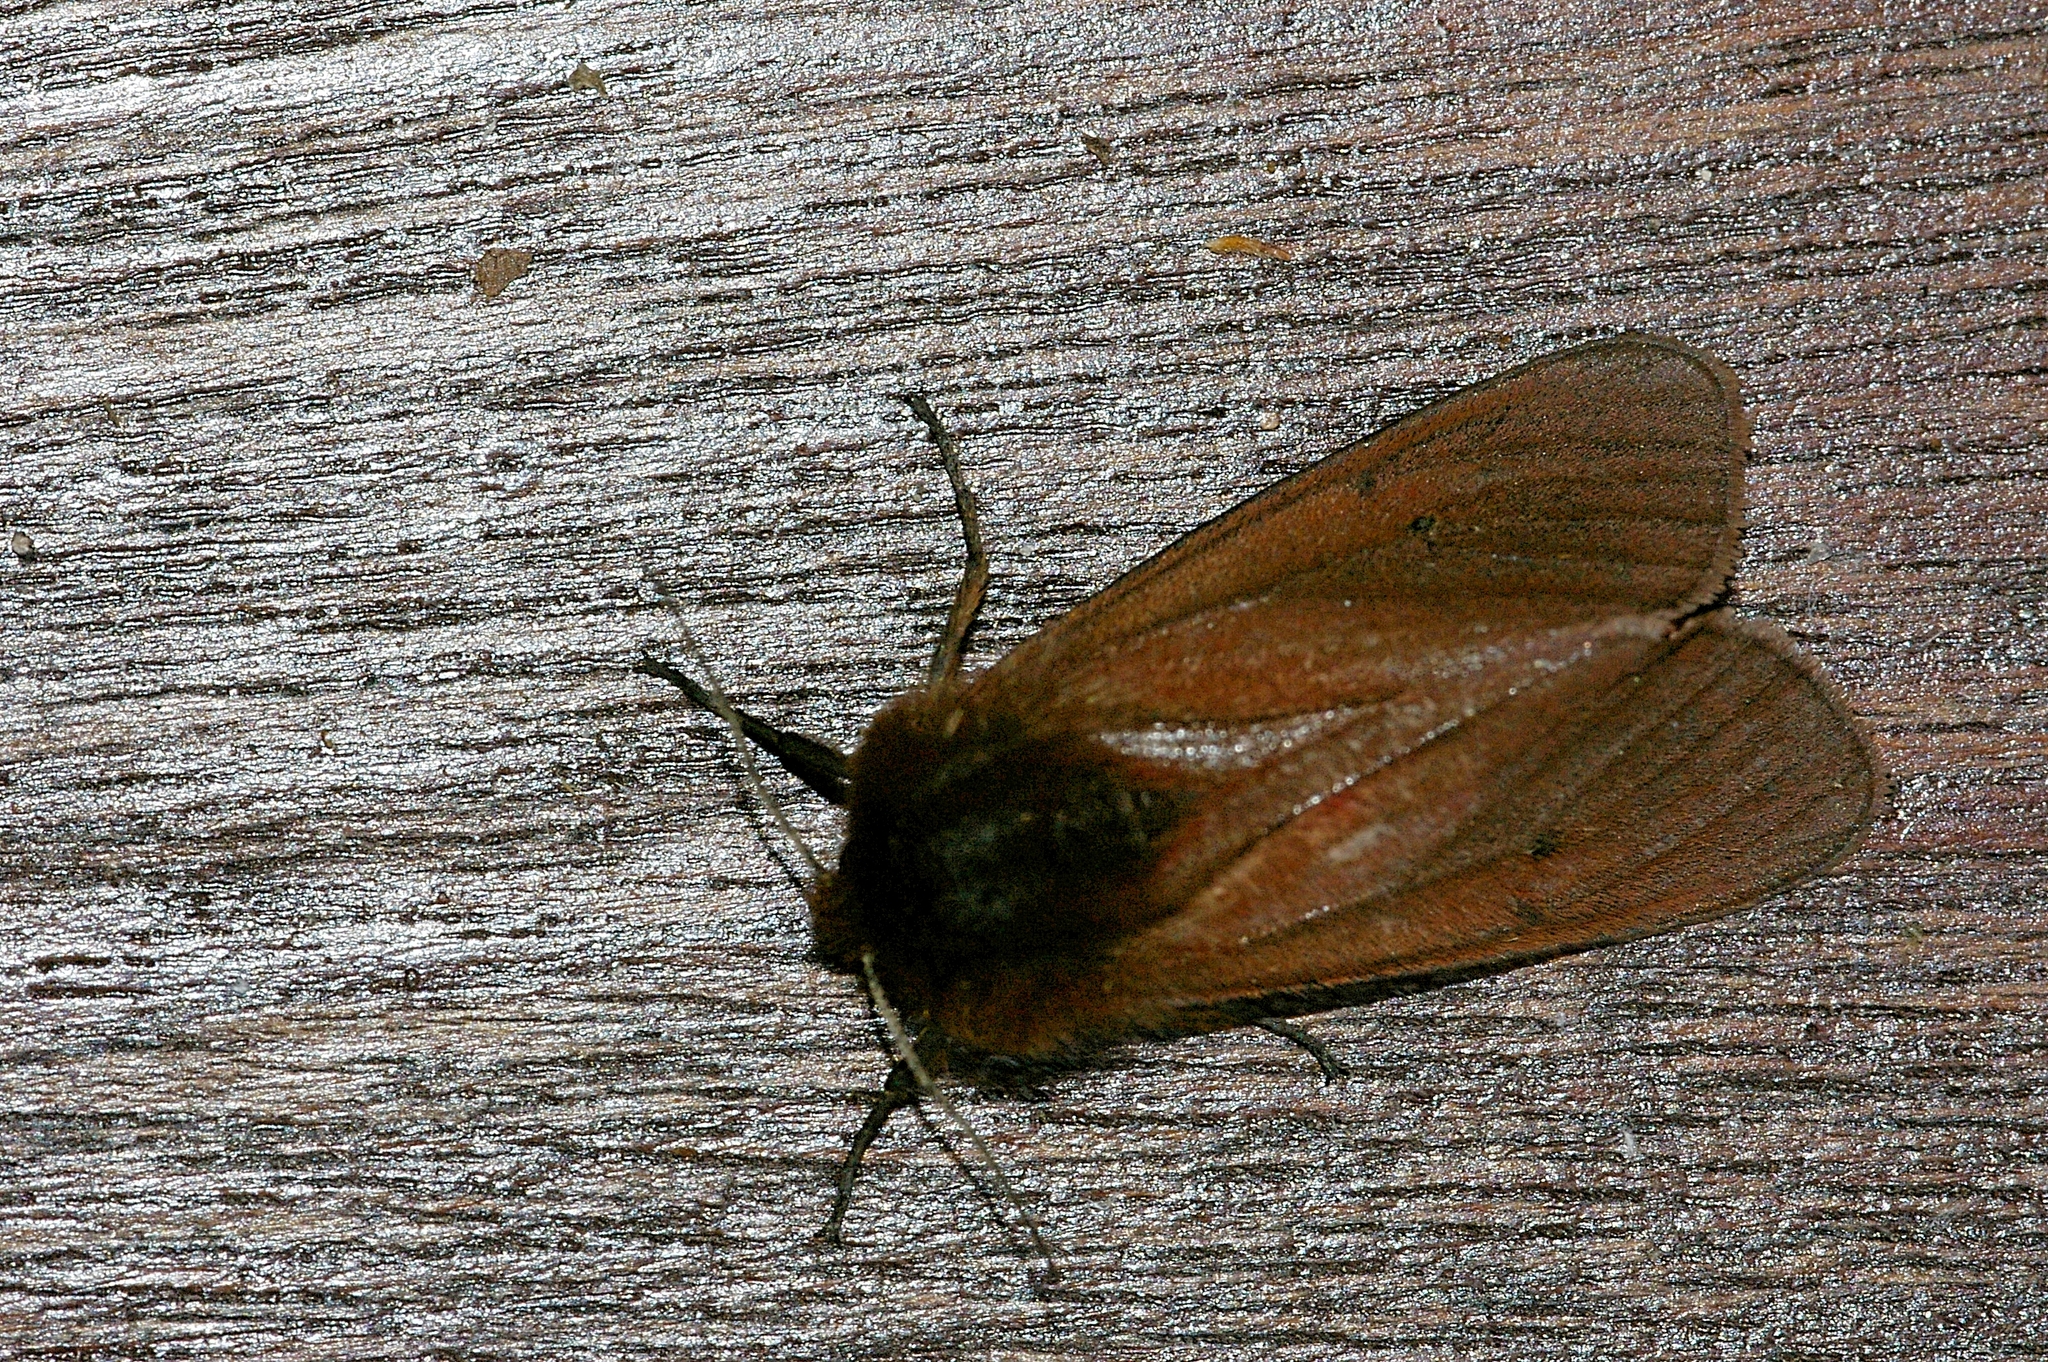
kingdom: Animalia
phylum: Arthropoda
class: Insecta
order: Lepidoptera
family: Erebidae
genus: Phragmatobia
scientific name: Phragmatobia fuliginosa
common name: Ruby tiger
